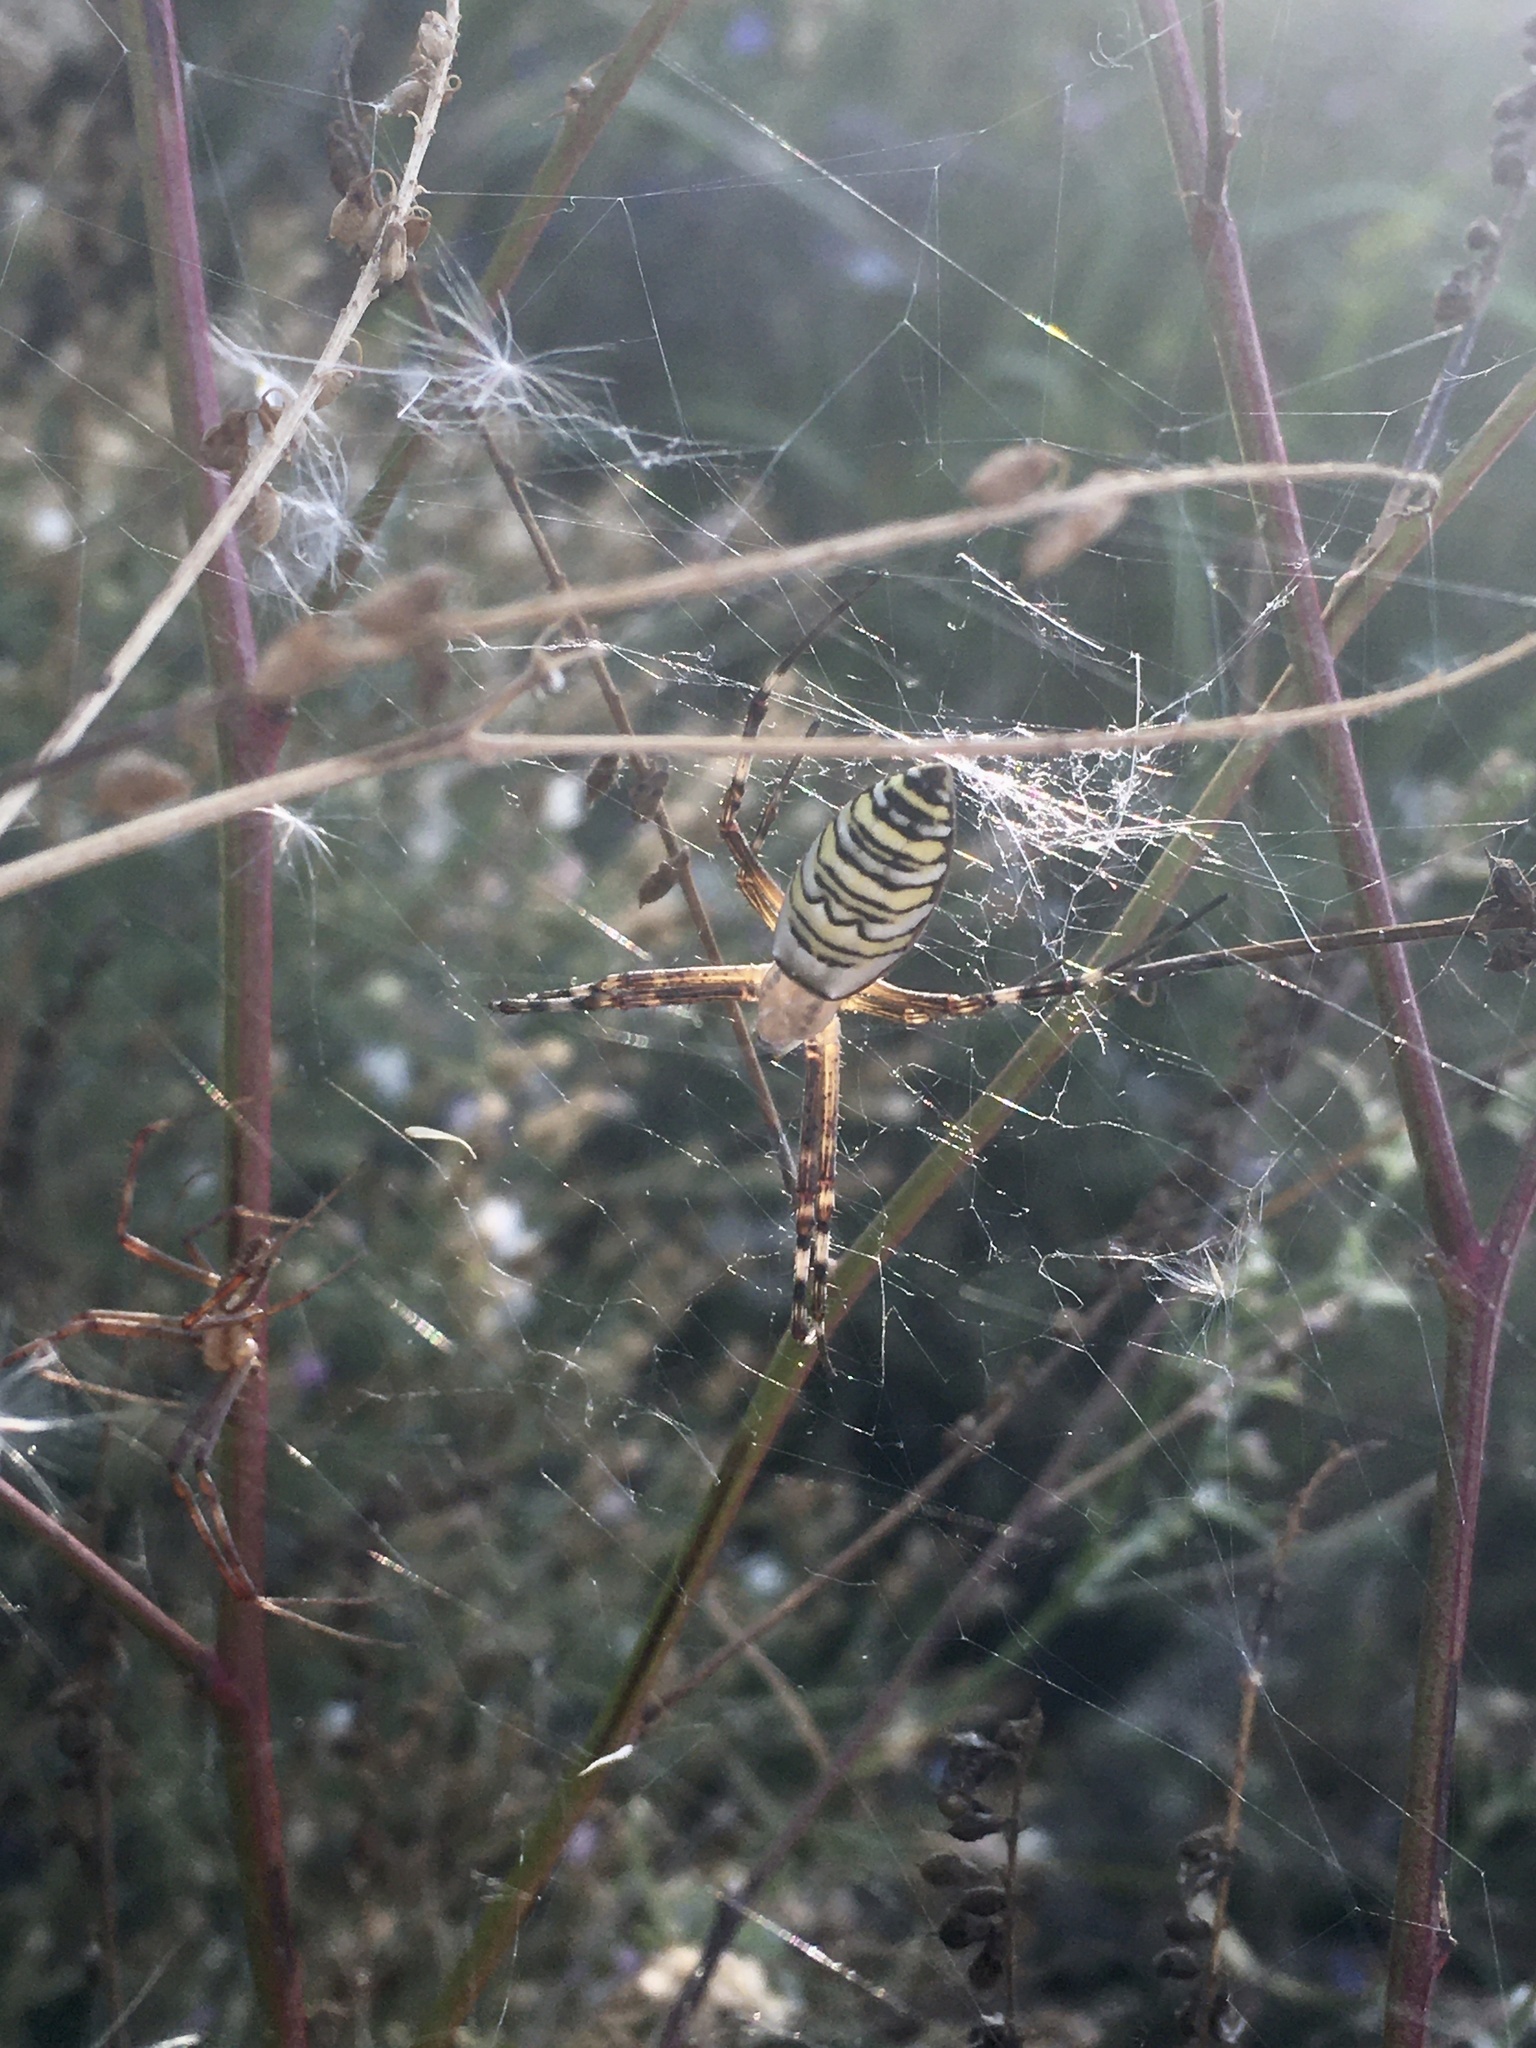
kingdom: Animalia
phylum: Arthropoda
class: Arachnida
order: Araneae
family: Araneidae
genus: Argiope
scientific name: Argiope bruennichi
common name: Wasp spider
